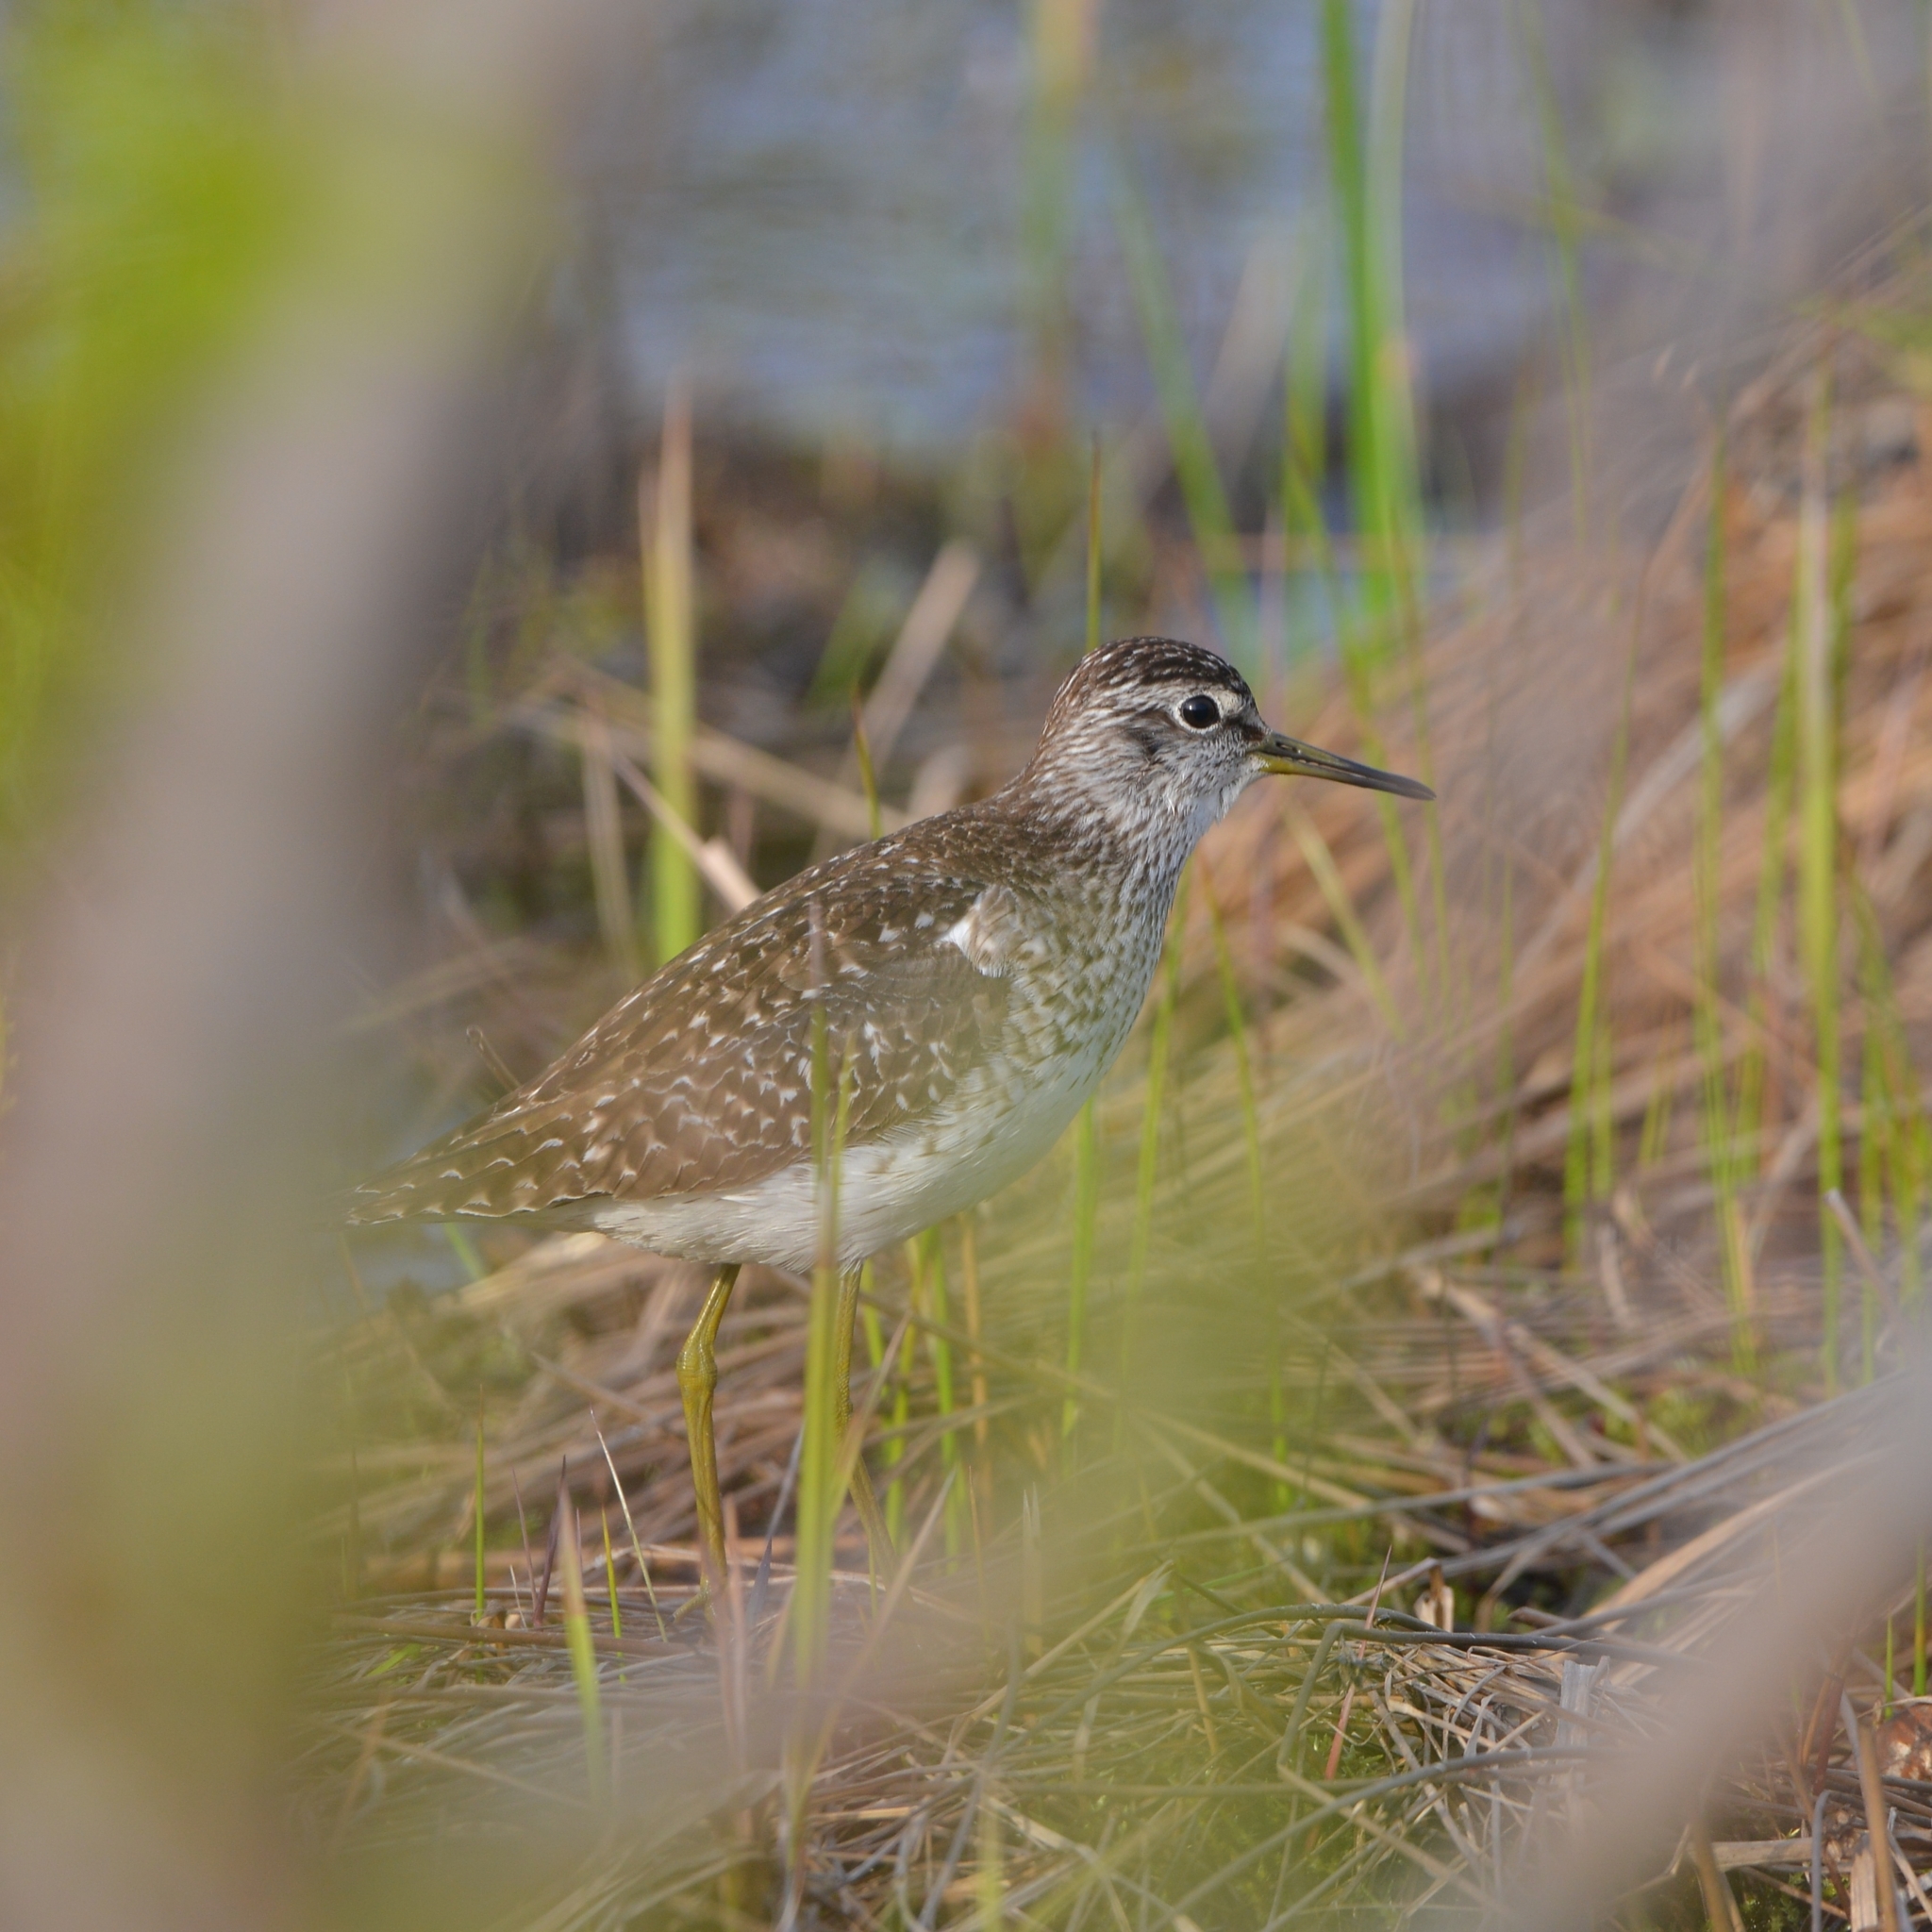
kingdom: Animalia
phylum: Chordata
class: Aves
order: Charadriiformes
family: Scolopacidae
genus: Tringa
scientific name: Tringa glareola
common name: Wood sandpiper
